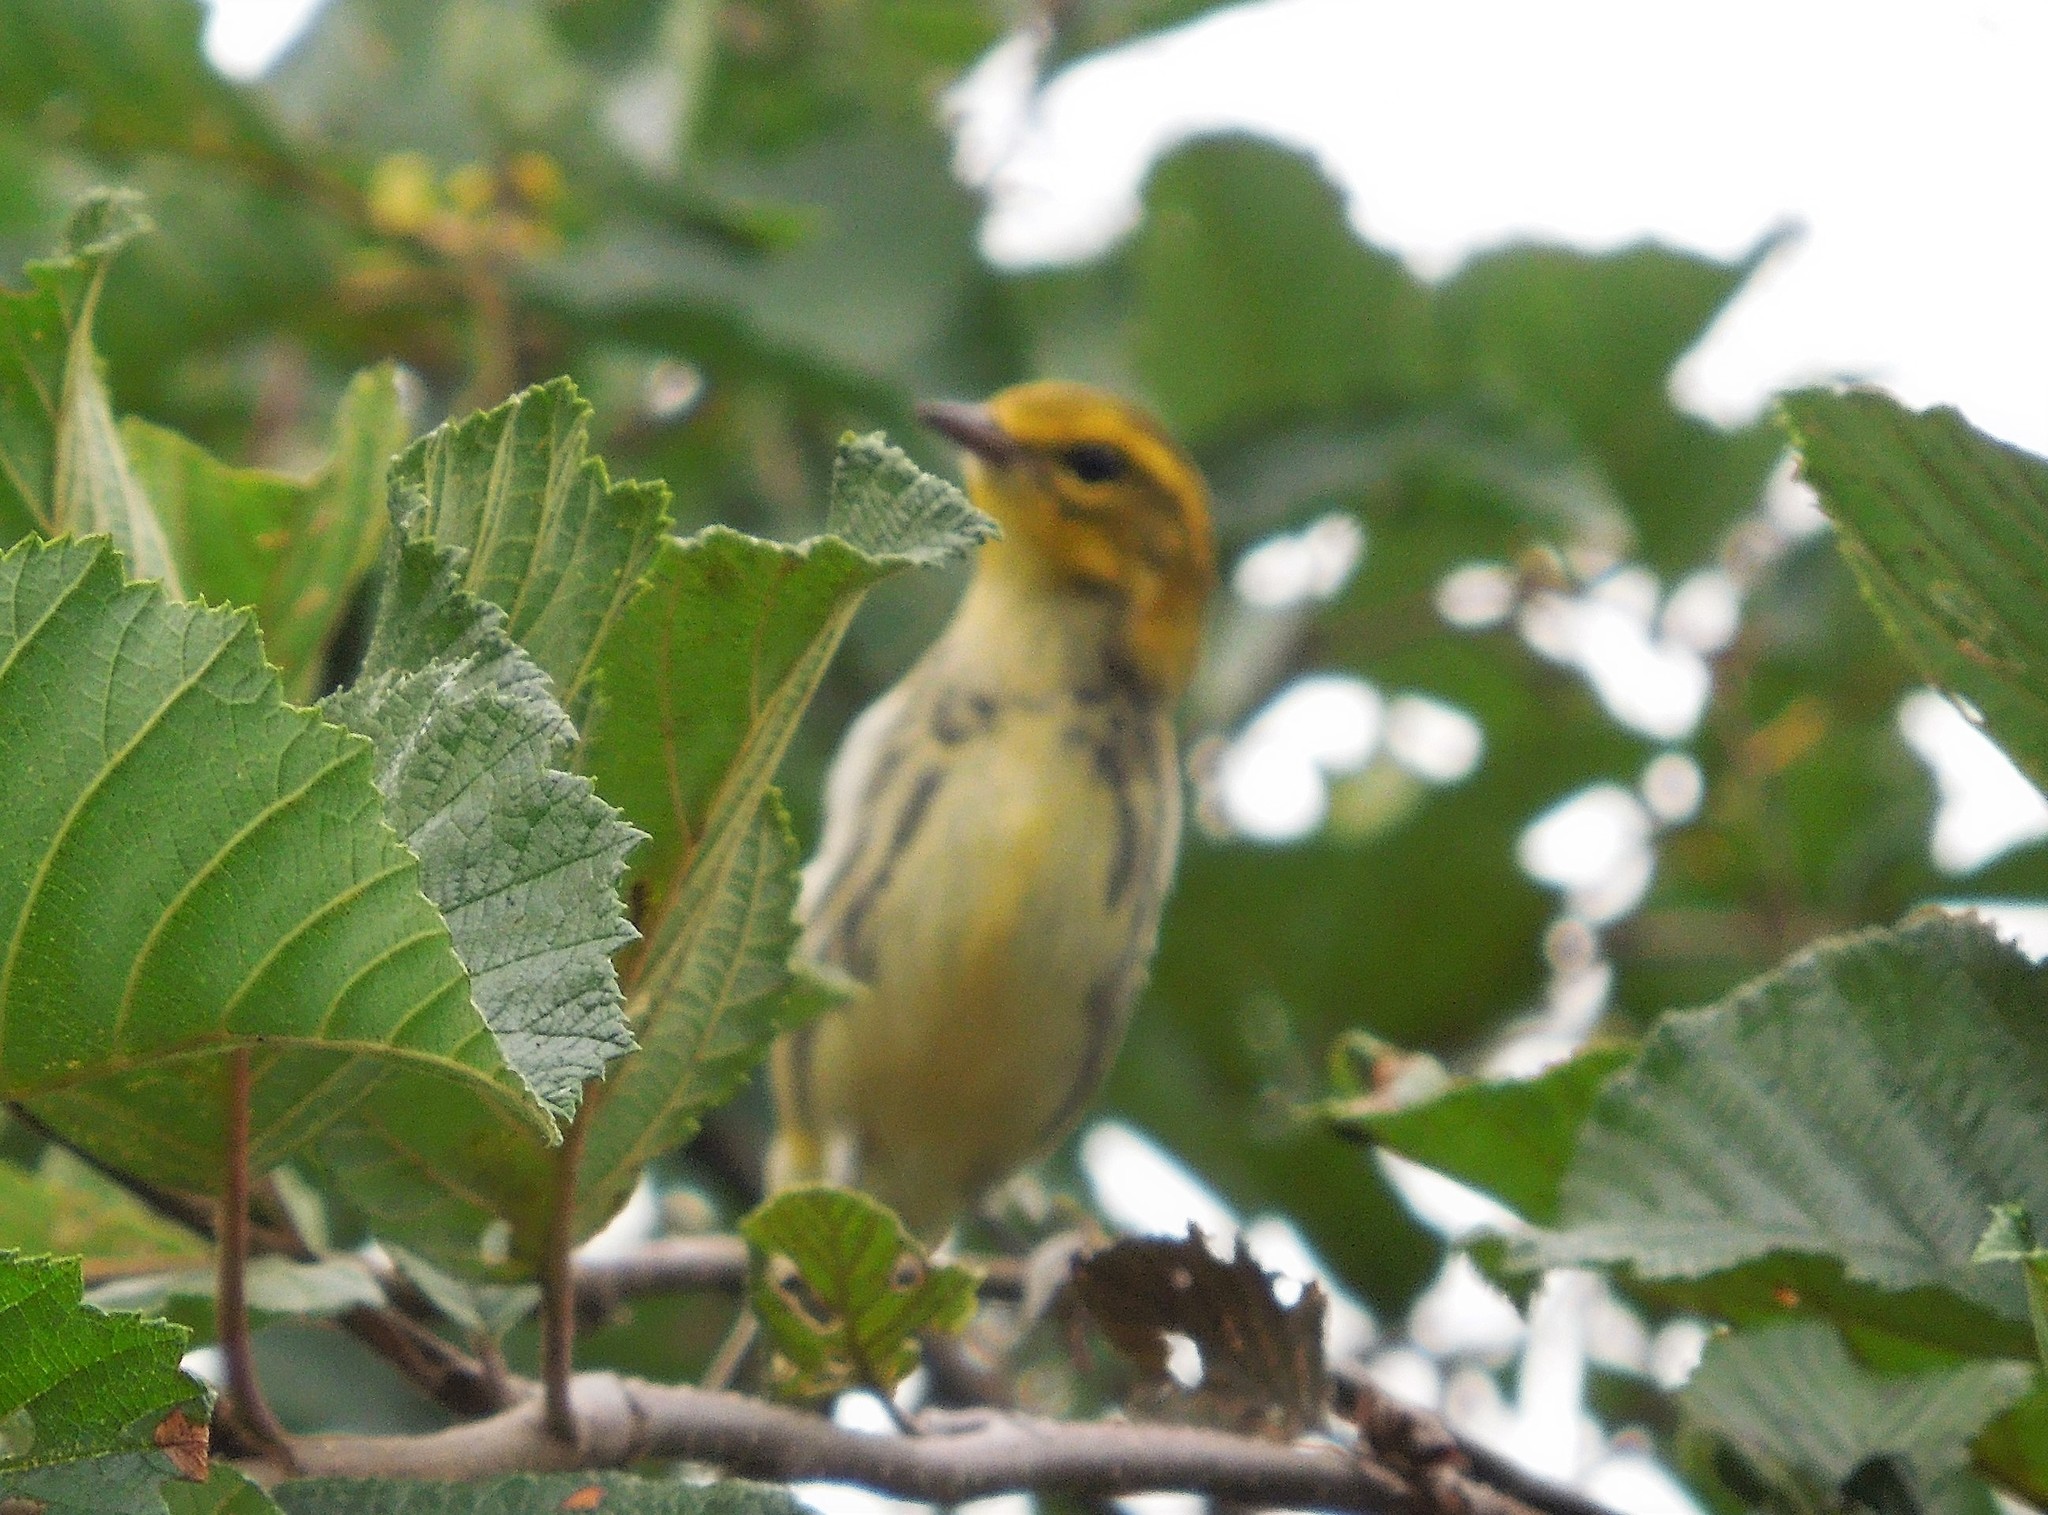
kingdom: Animalia
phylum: Chordata
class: Aves
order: Passeriformes
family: Parulidae
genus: Setophaga
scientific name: Setophaga virens
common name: Black-throated green warbler
